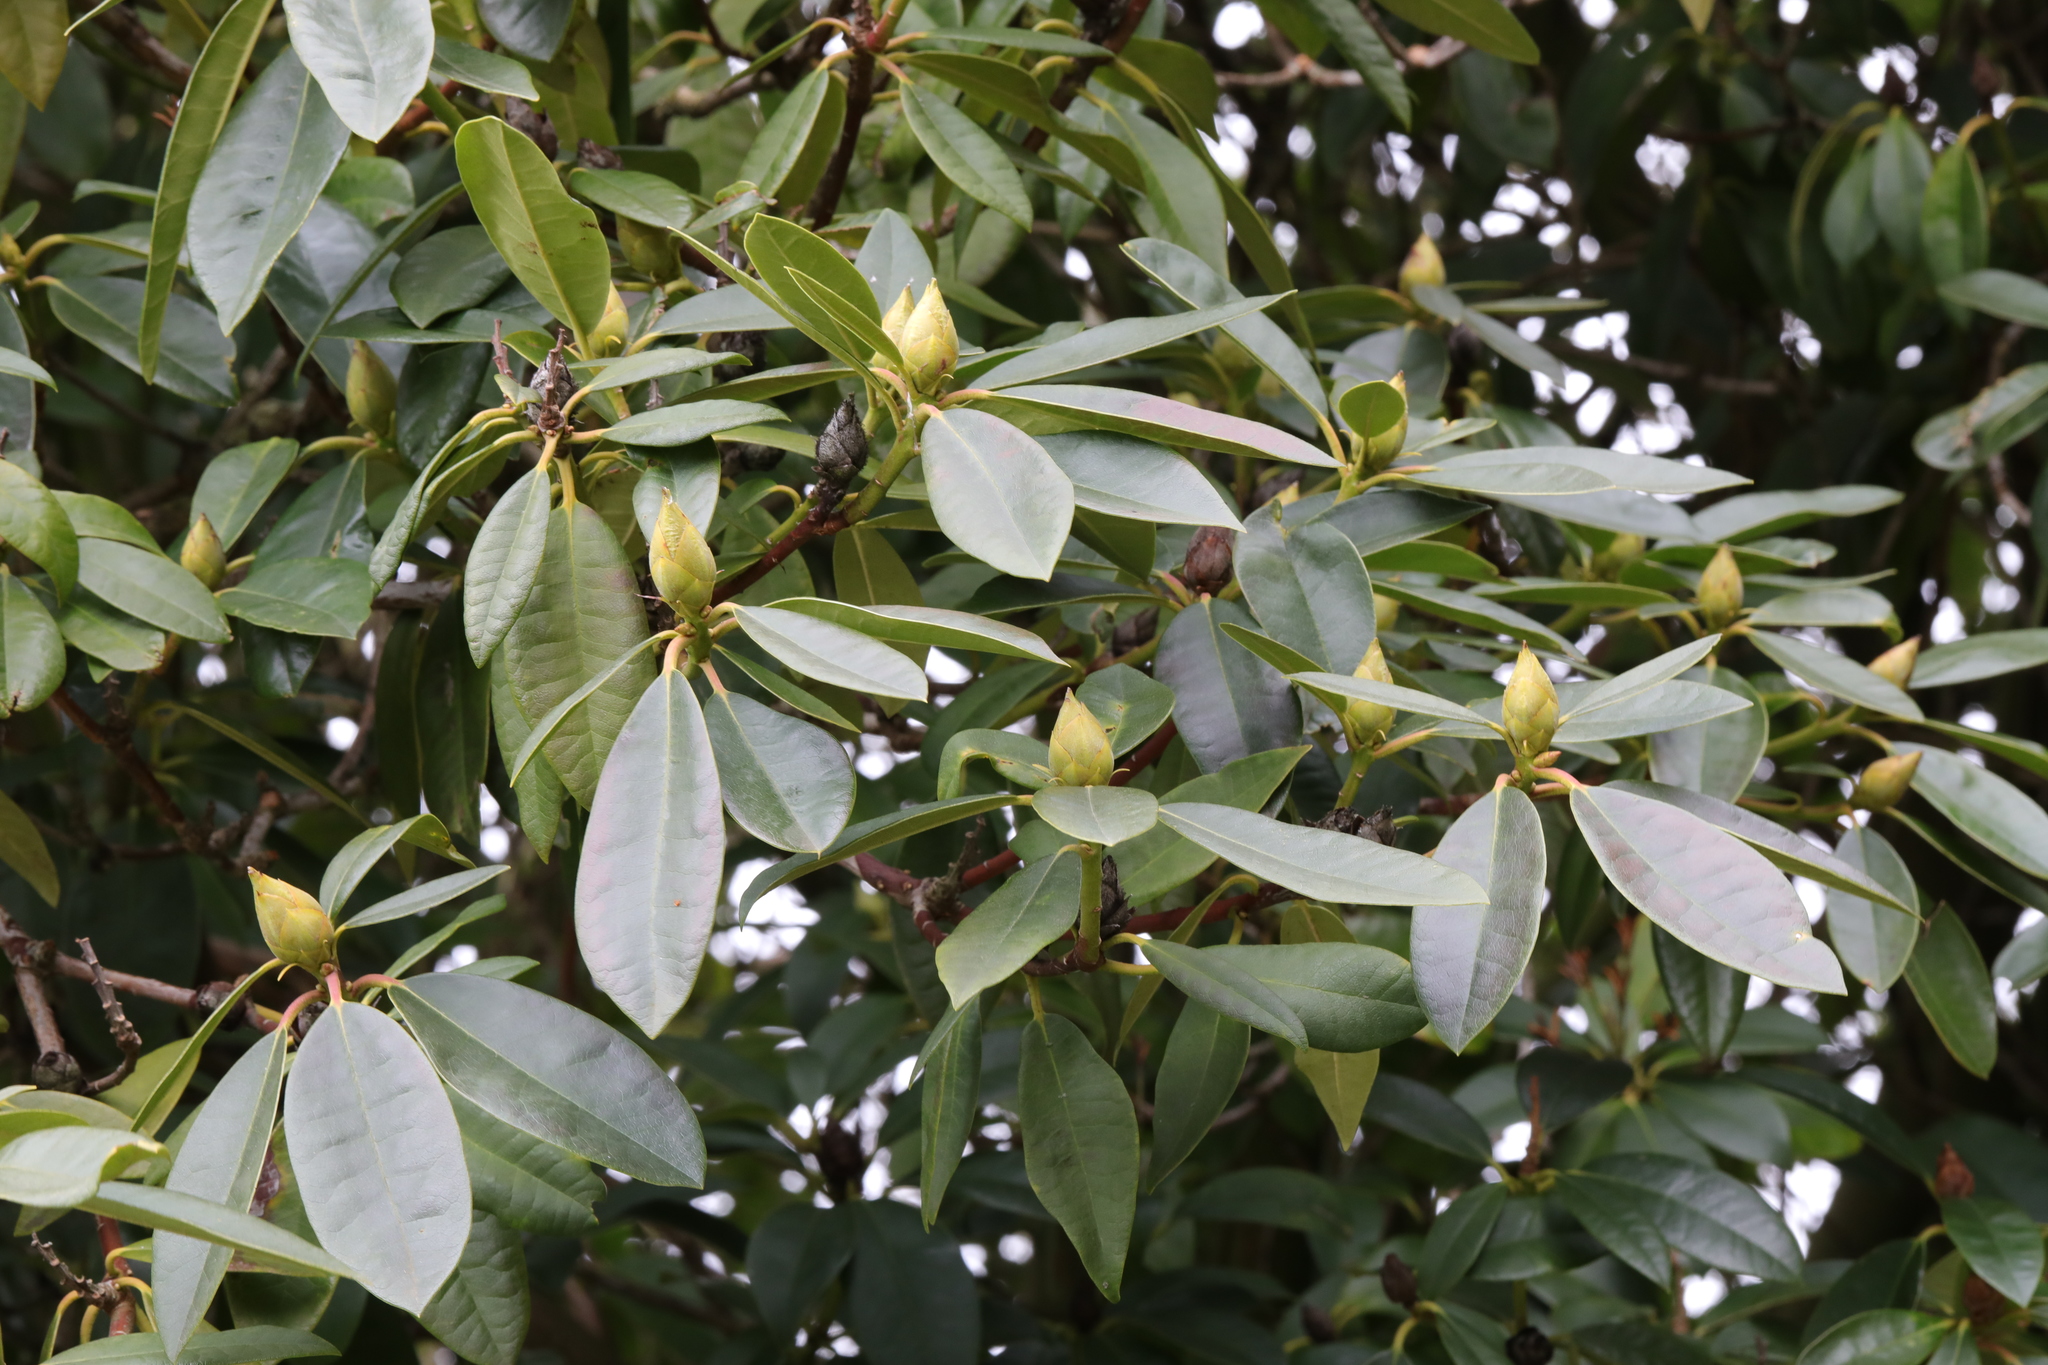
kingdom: Plantae
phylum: Tracheophyta
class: Magnoliopsida
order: Ericales
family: Ericaceae
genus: Rhododendron
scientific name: Rhododendron ponticum
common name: Rhododendron
